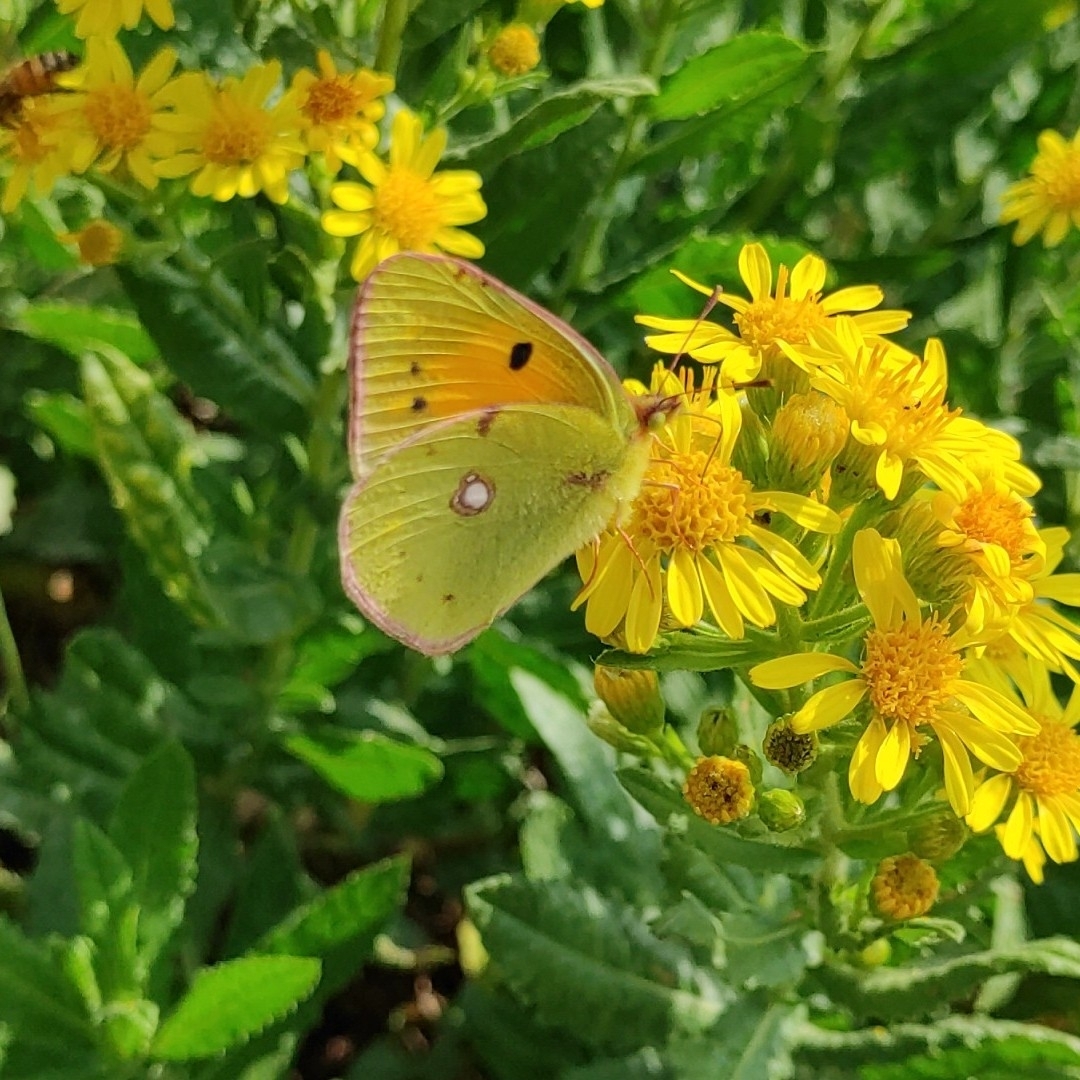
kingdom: Animalia
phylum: Arthropoda
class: Insecta
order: Lepidoptera
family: Pieridae
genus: Colias
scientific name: Colias croceus
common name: Clouded yellow
